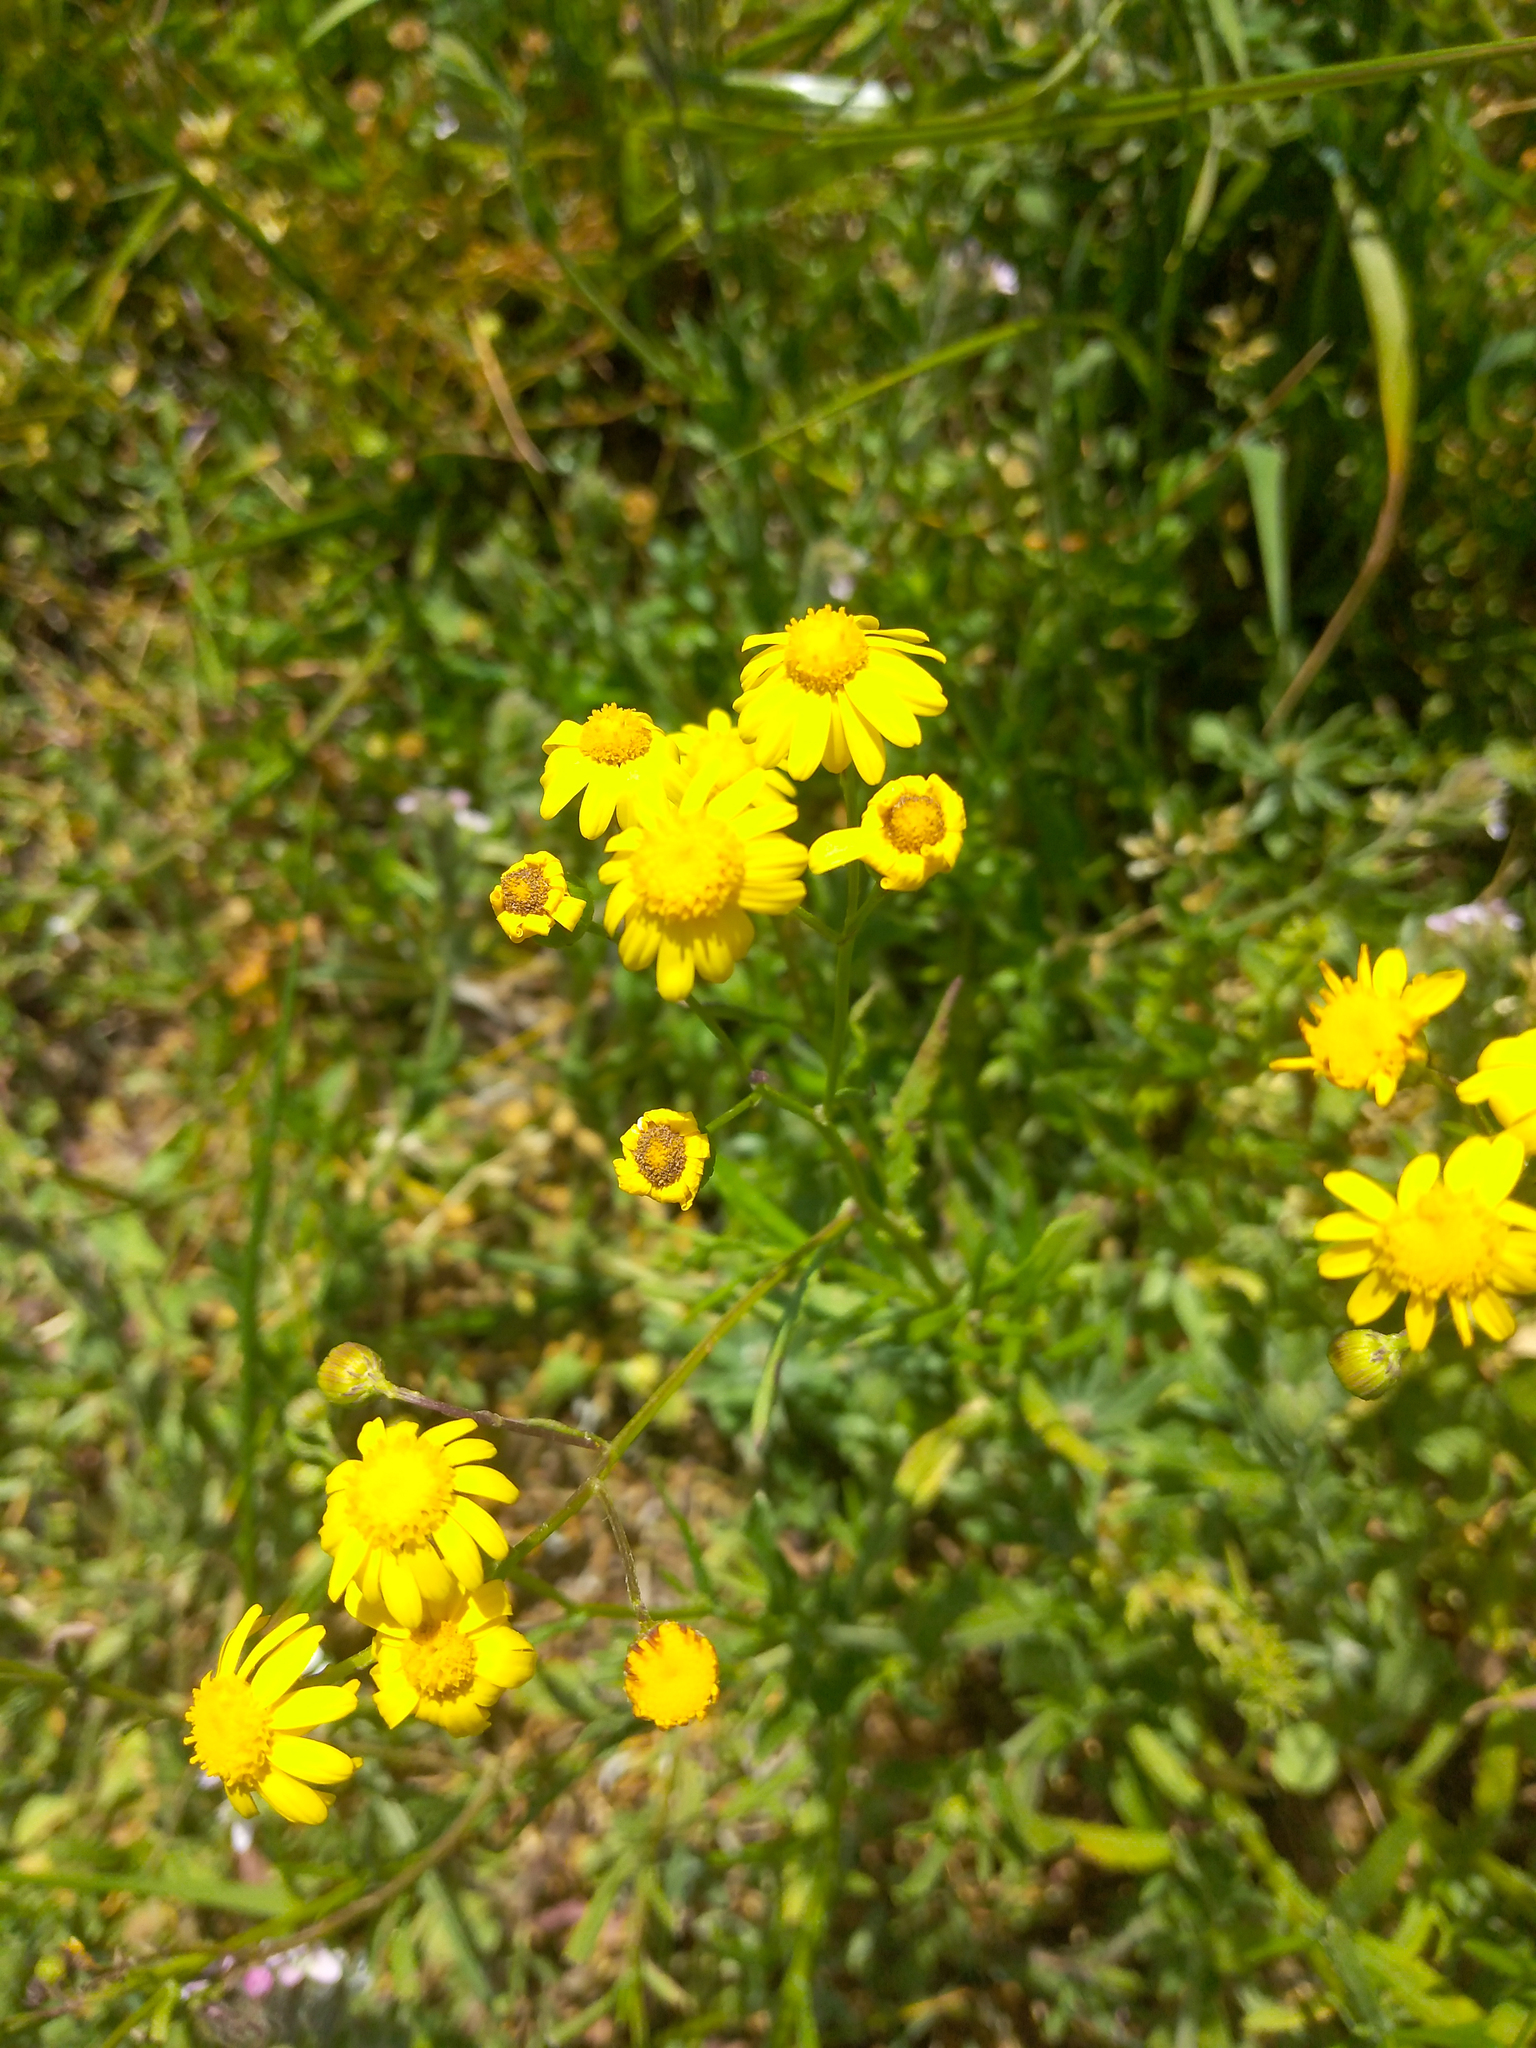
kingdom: Plantae
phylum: Tracheophyta
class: Magnoliopsida
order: Asterales
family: Asteraceae
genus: Senecio
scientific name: Senecio madagascariensis
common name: Madagascar ragwort
